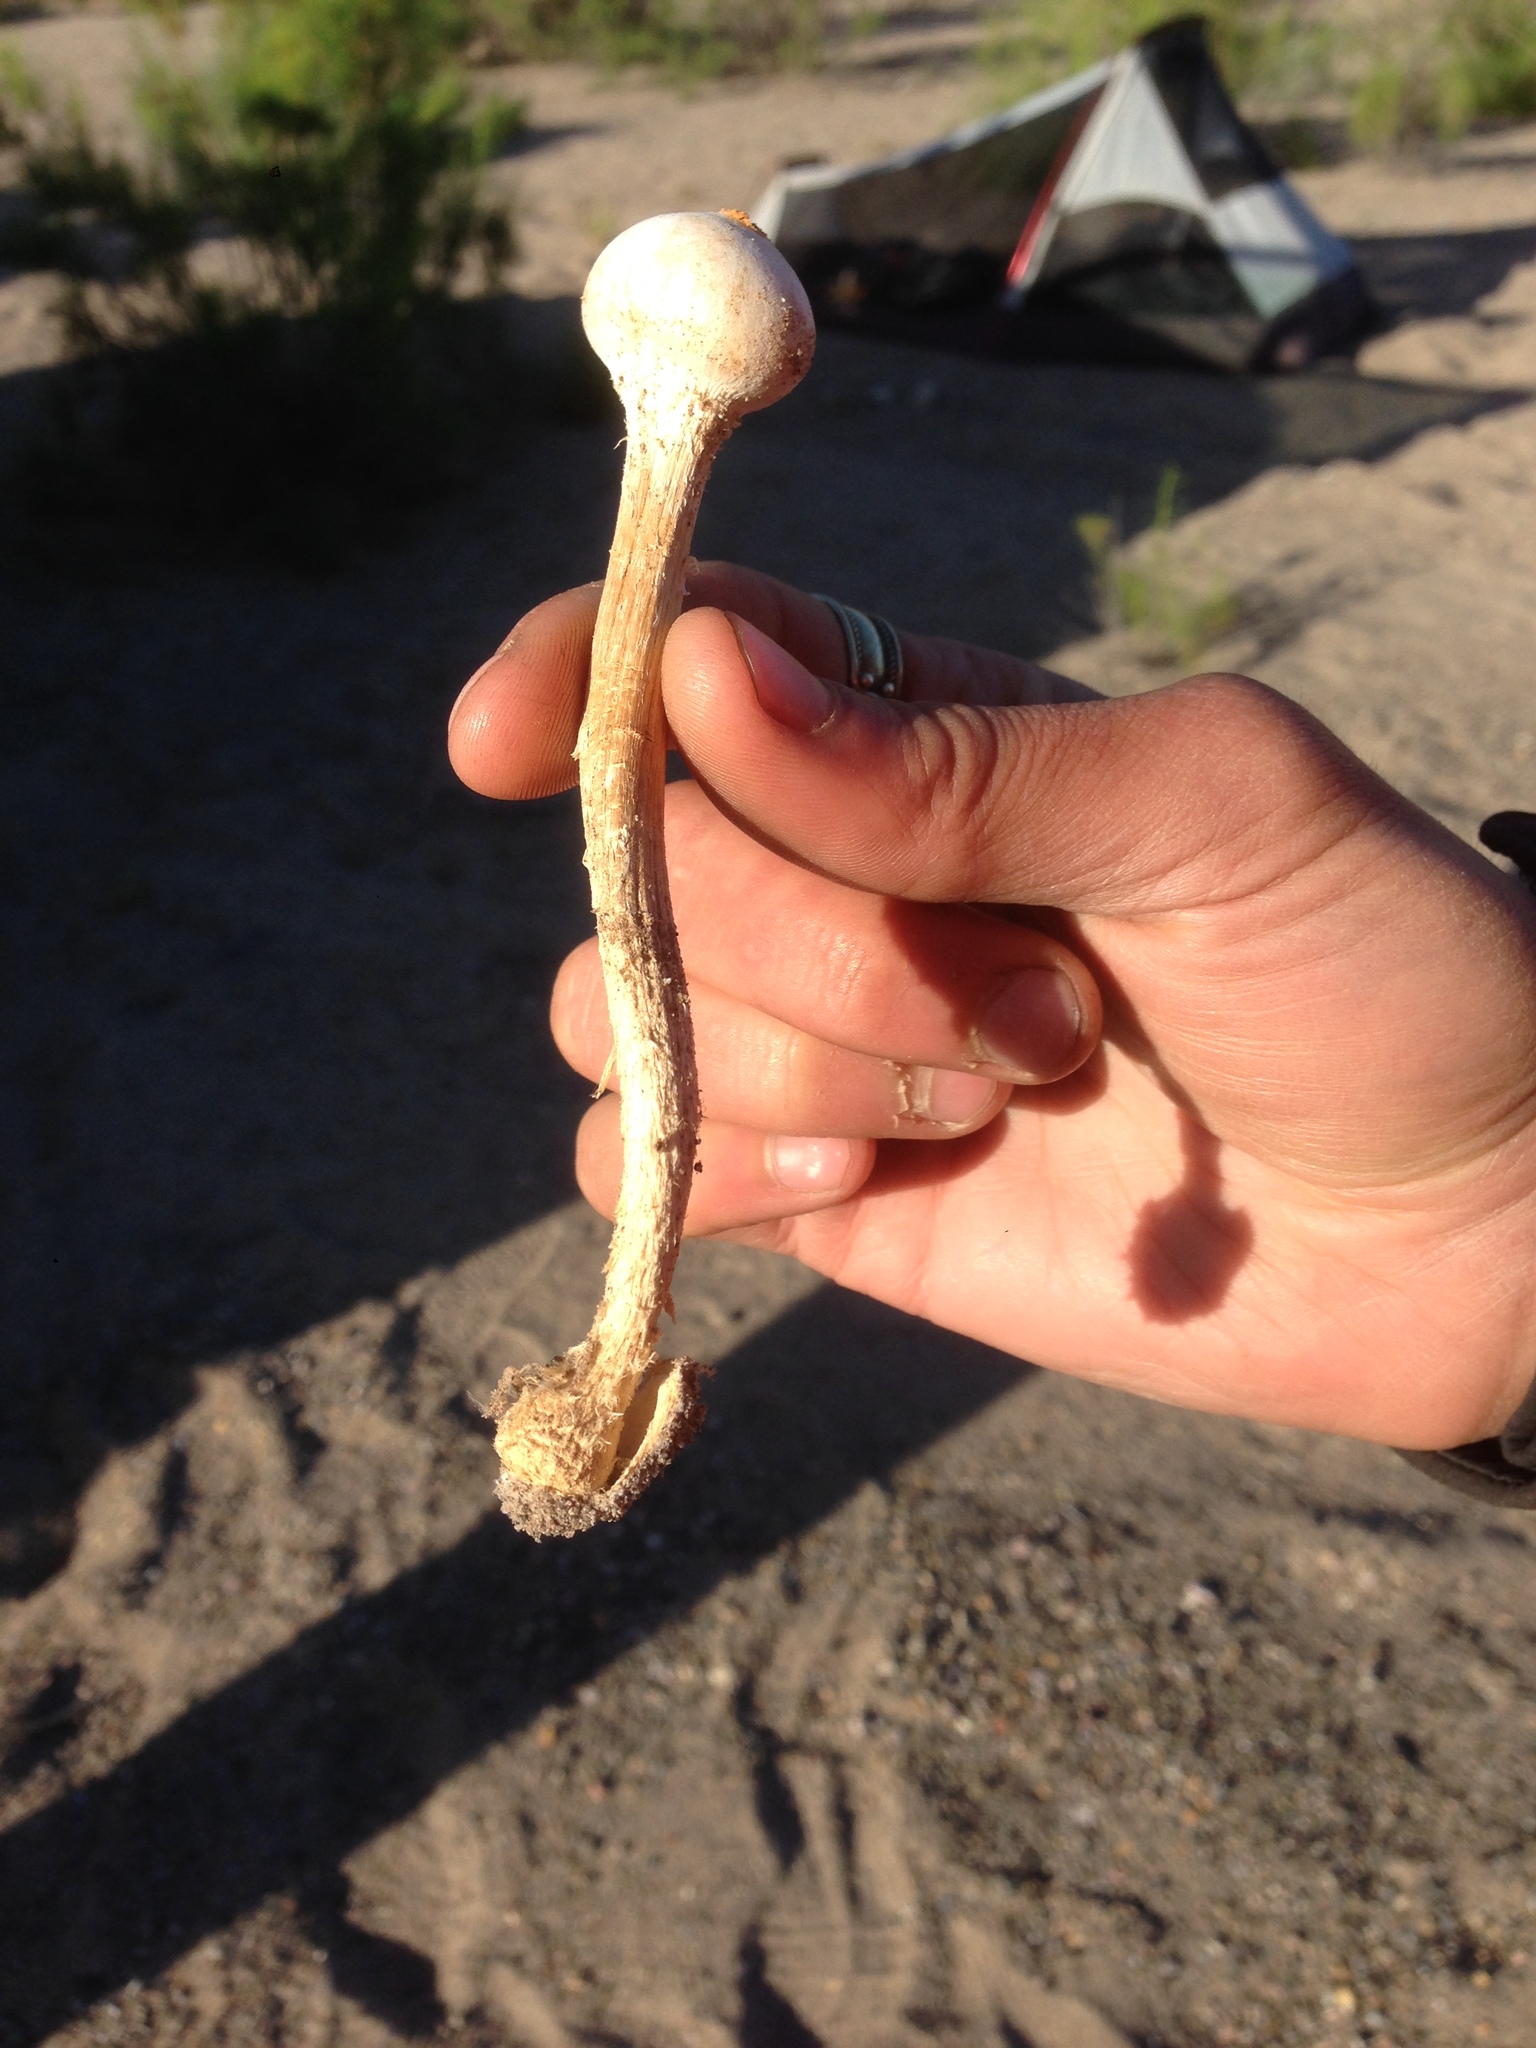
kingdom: Fungi
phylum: Basidiomycota
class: Agaricomycetes
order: Agaricales
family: Agaricaceae
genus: Chlamydopus
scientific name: Chlamydopus meyenianus
